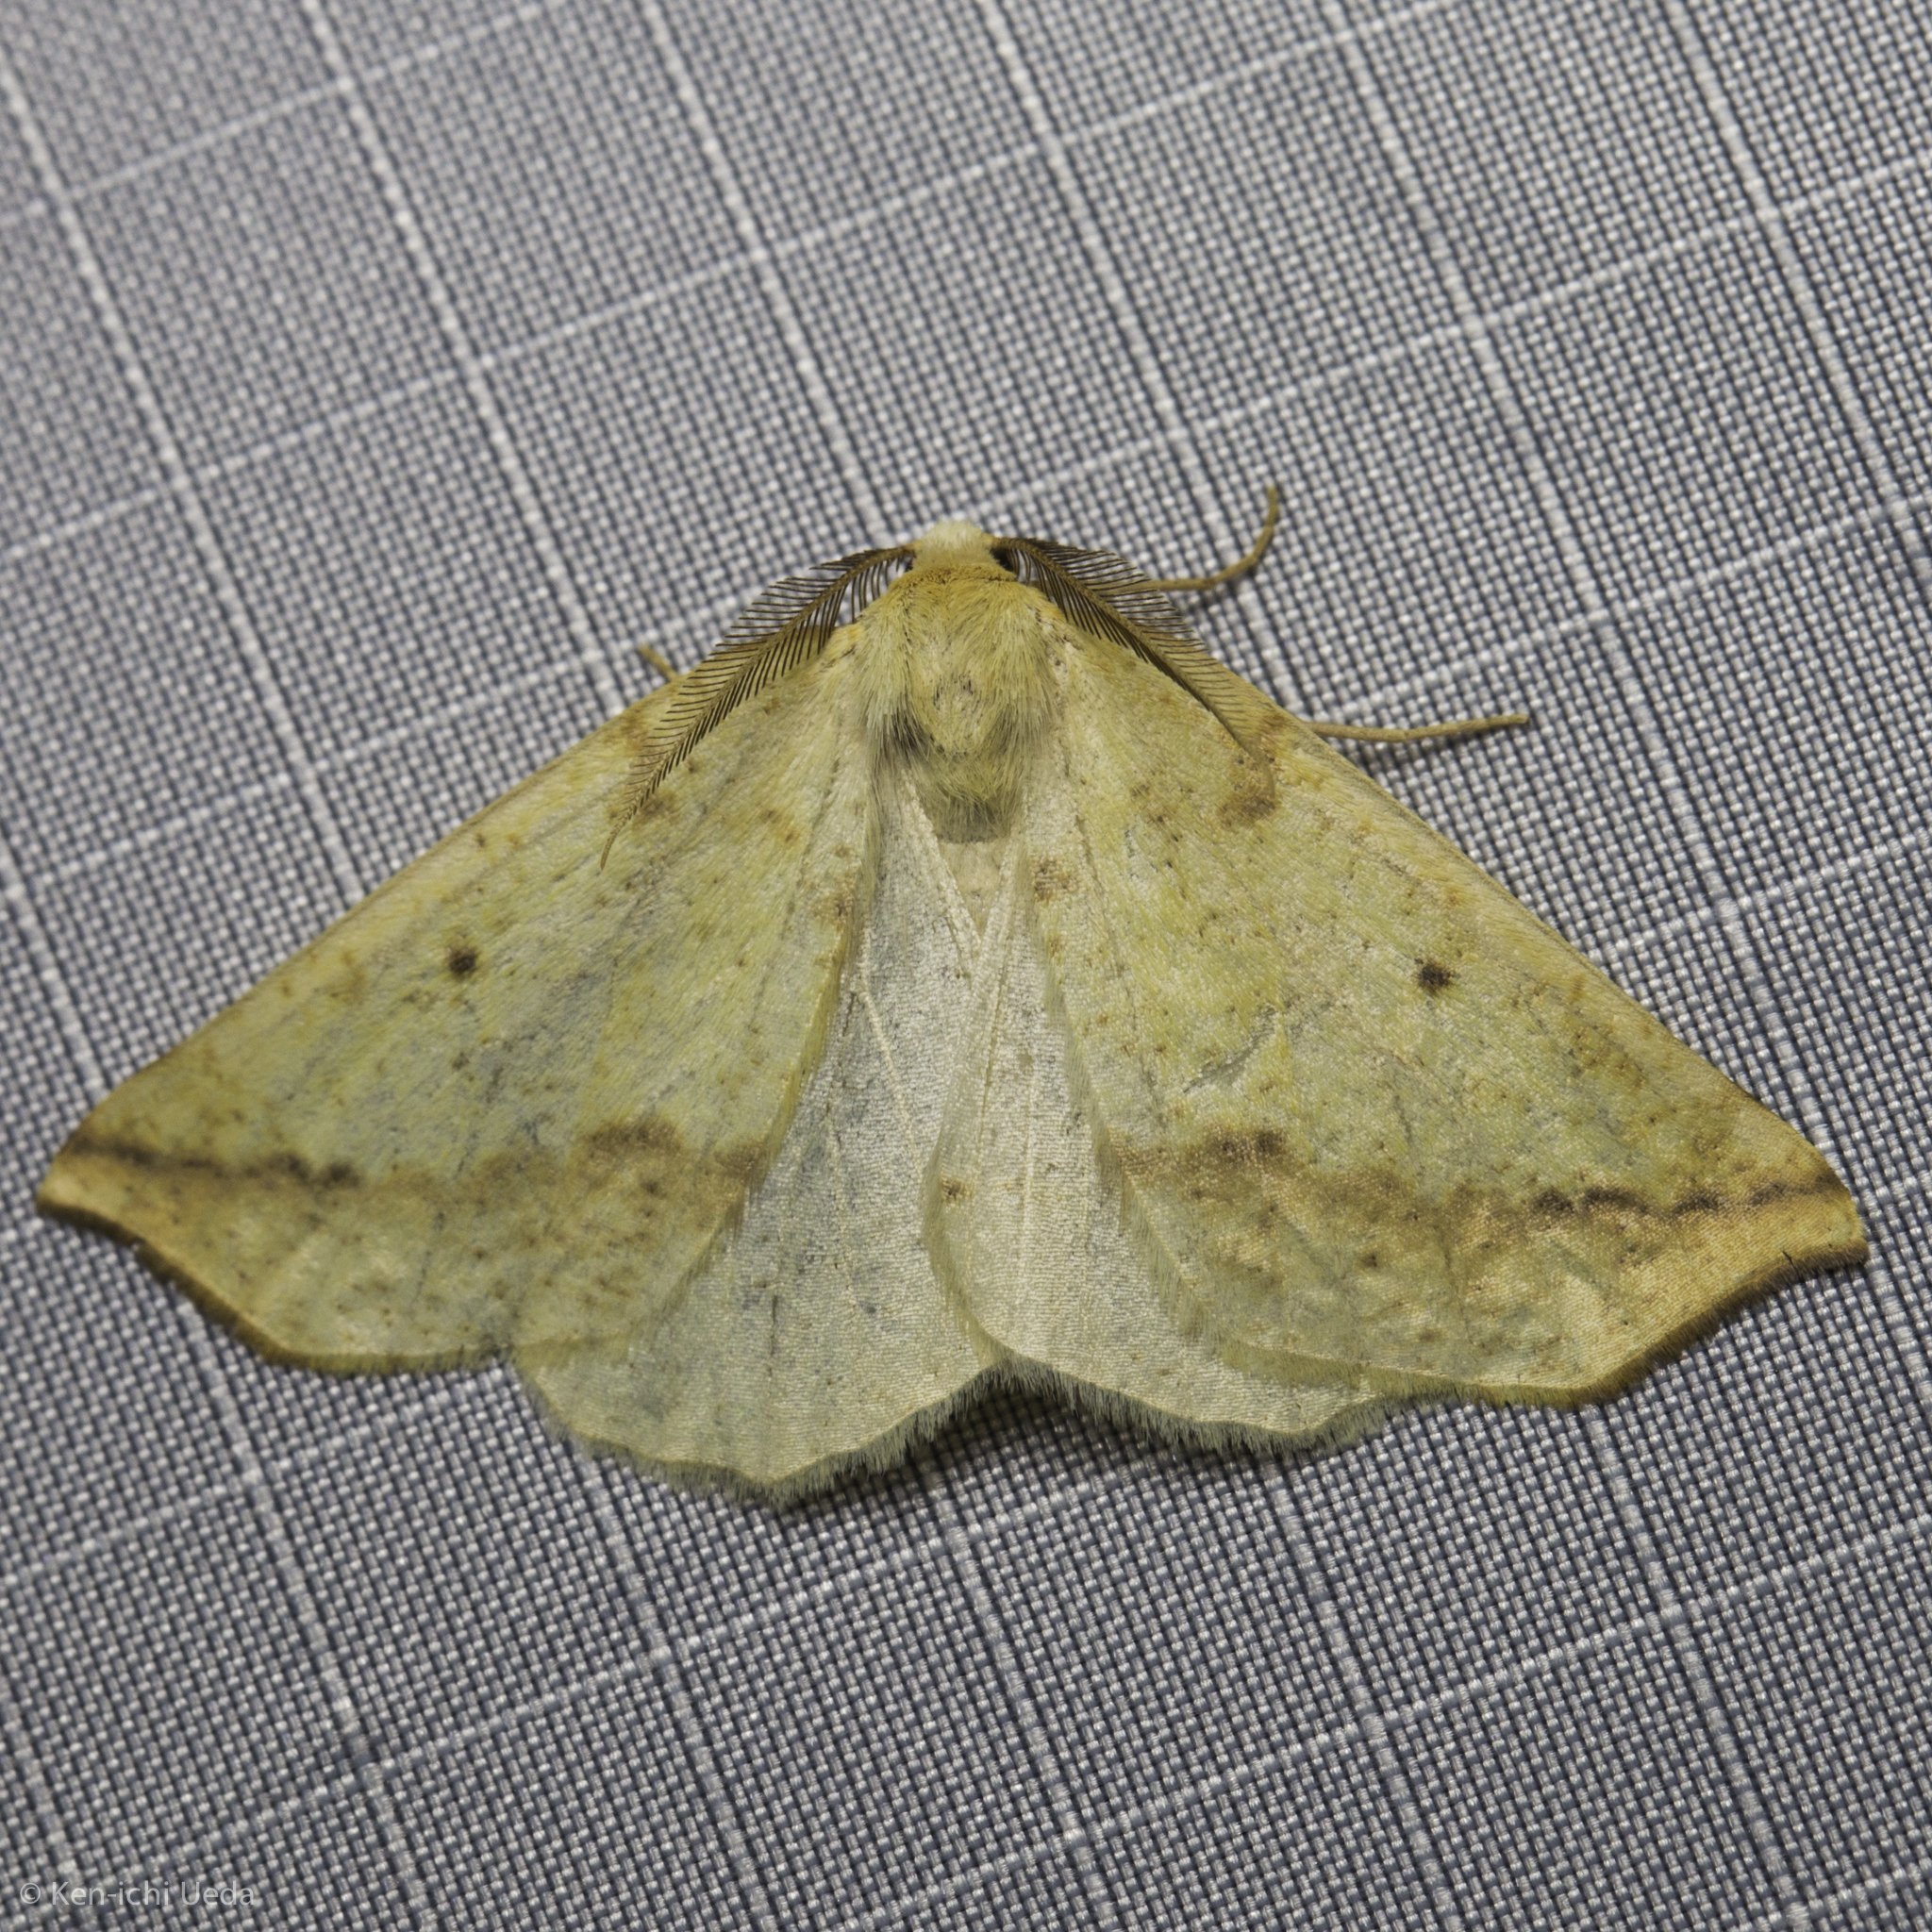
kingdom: Animalia
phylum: Arthropoda
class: Insecta
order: Lepidoptera
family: Geometridae
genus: Neoterpes
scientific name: Neoterpes edwardsata
